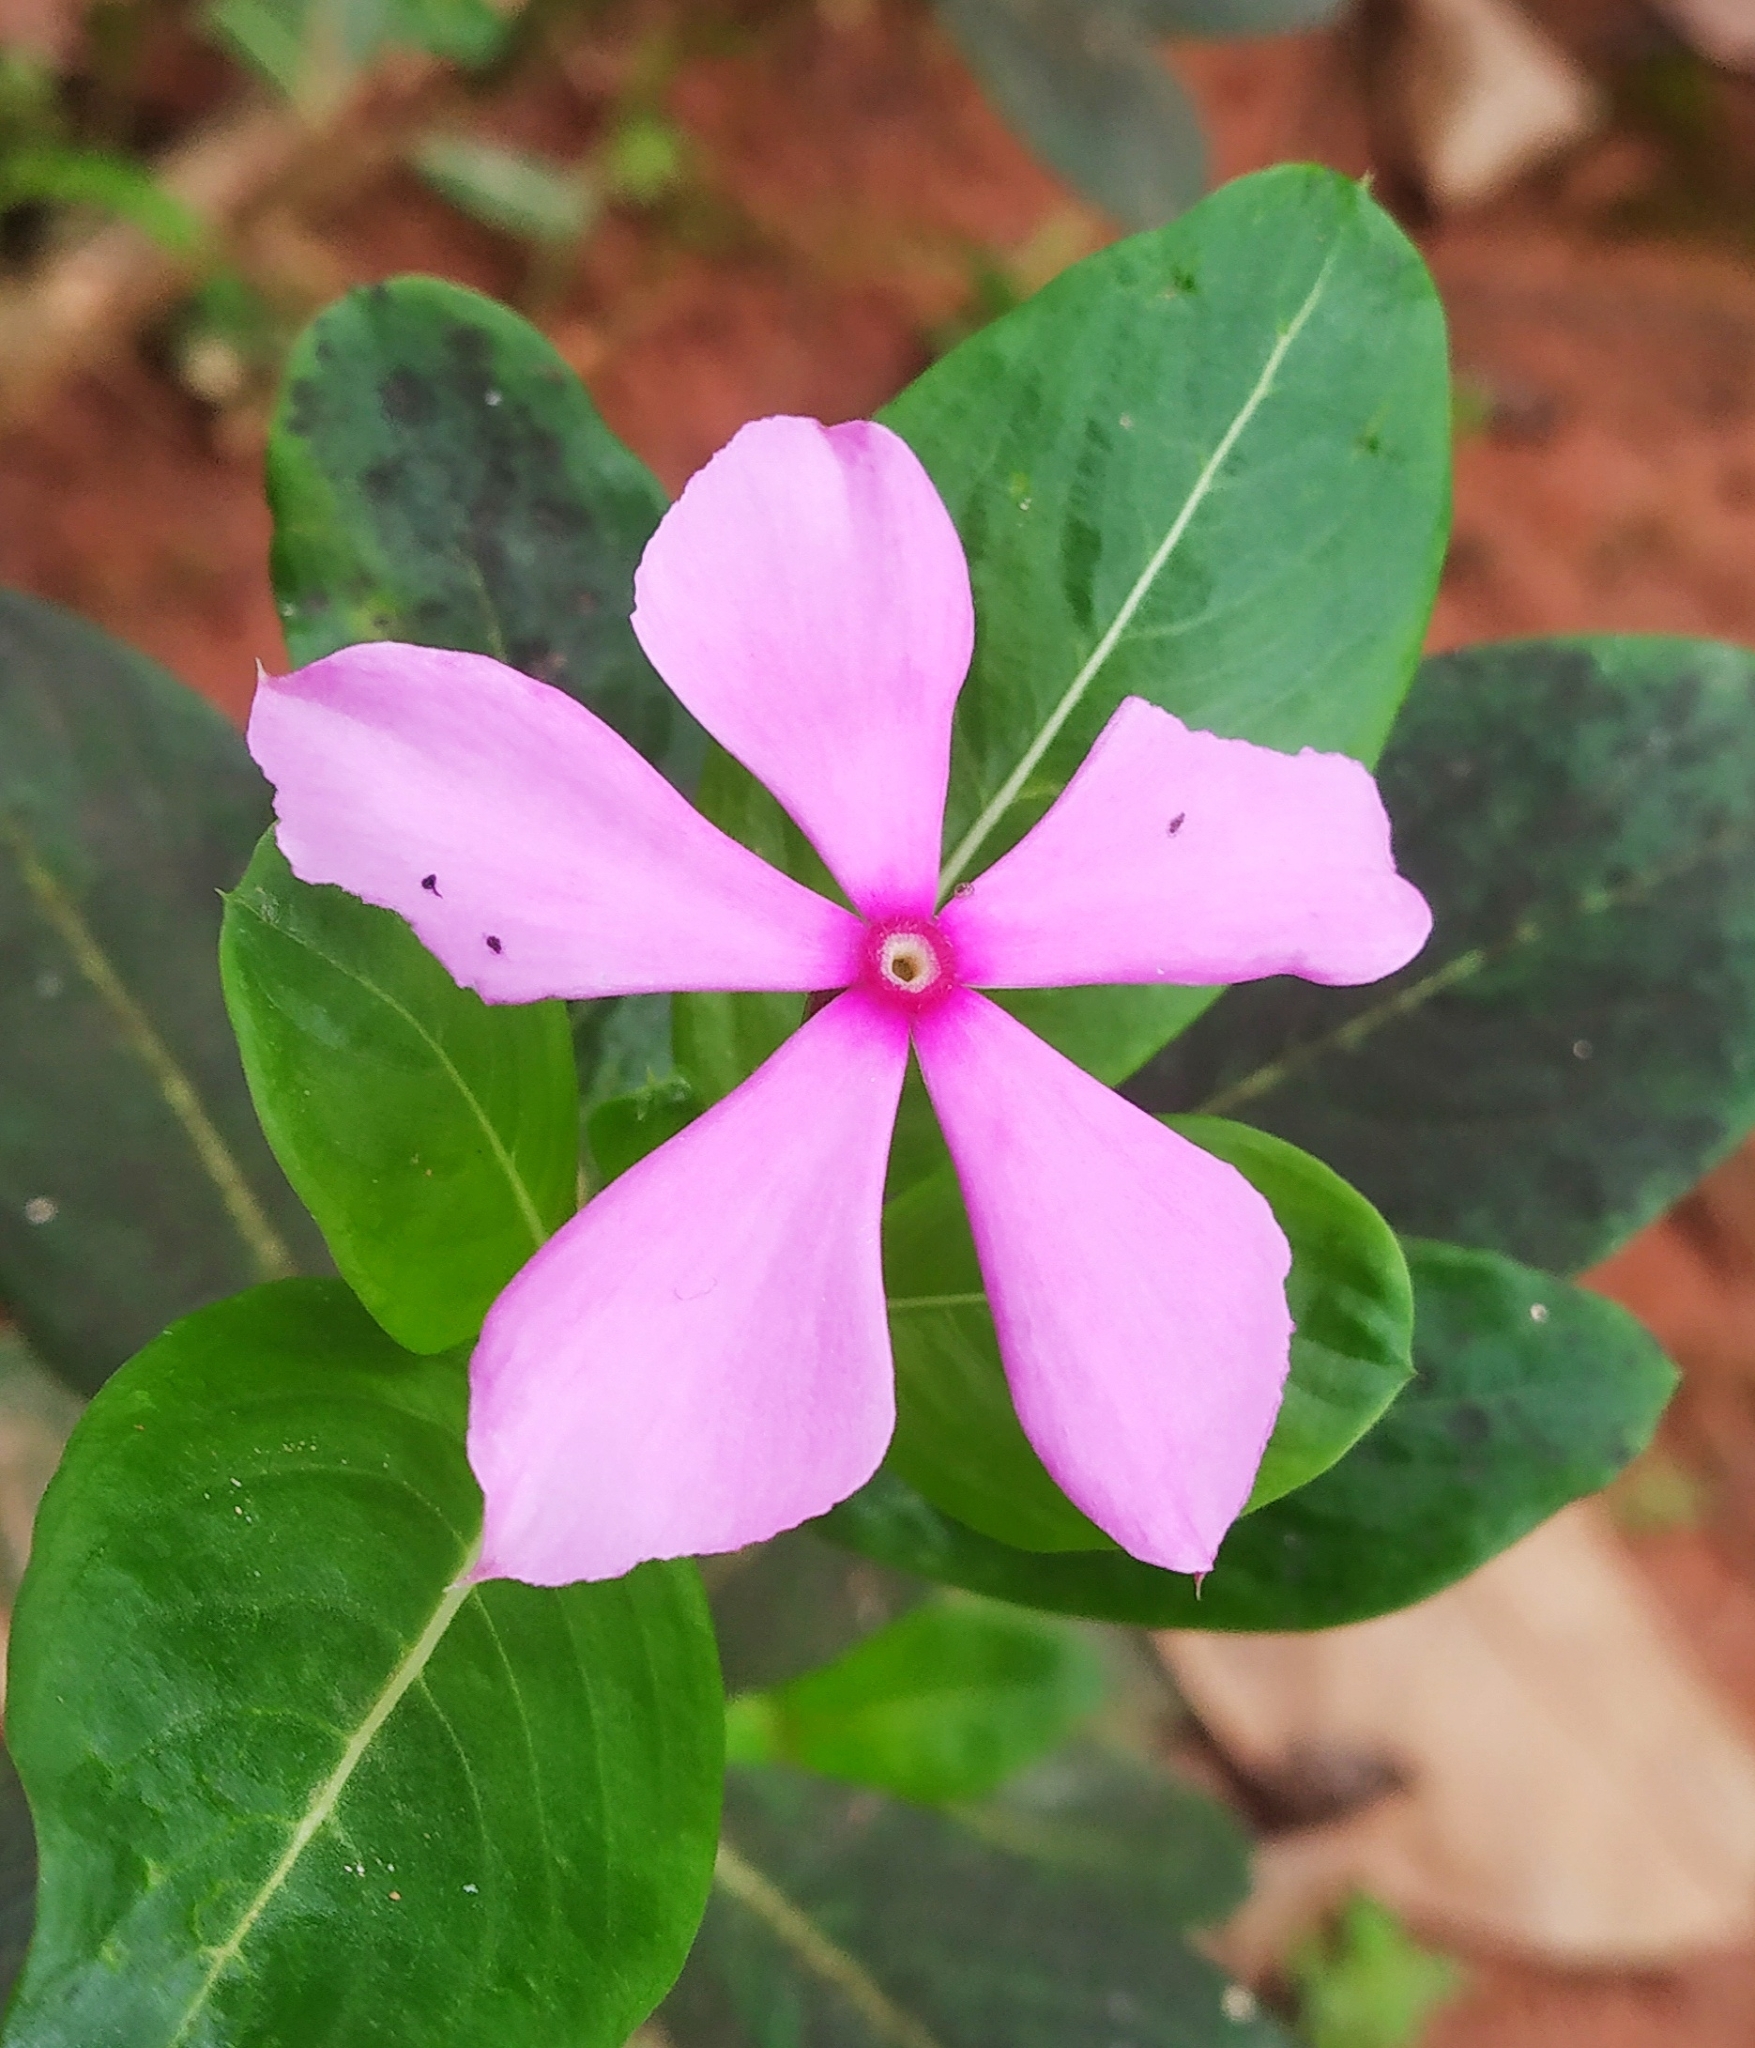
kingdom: Plantae
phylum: Tracheophyta
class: Magnoliopsida
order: Gentianales
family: Apocynaceae
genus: Catharanthus
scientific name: Catharanthus roseus
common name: Madagascar periwinkle
